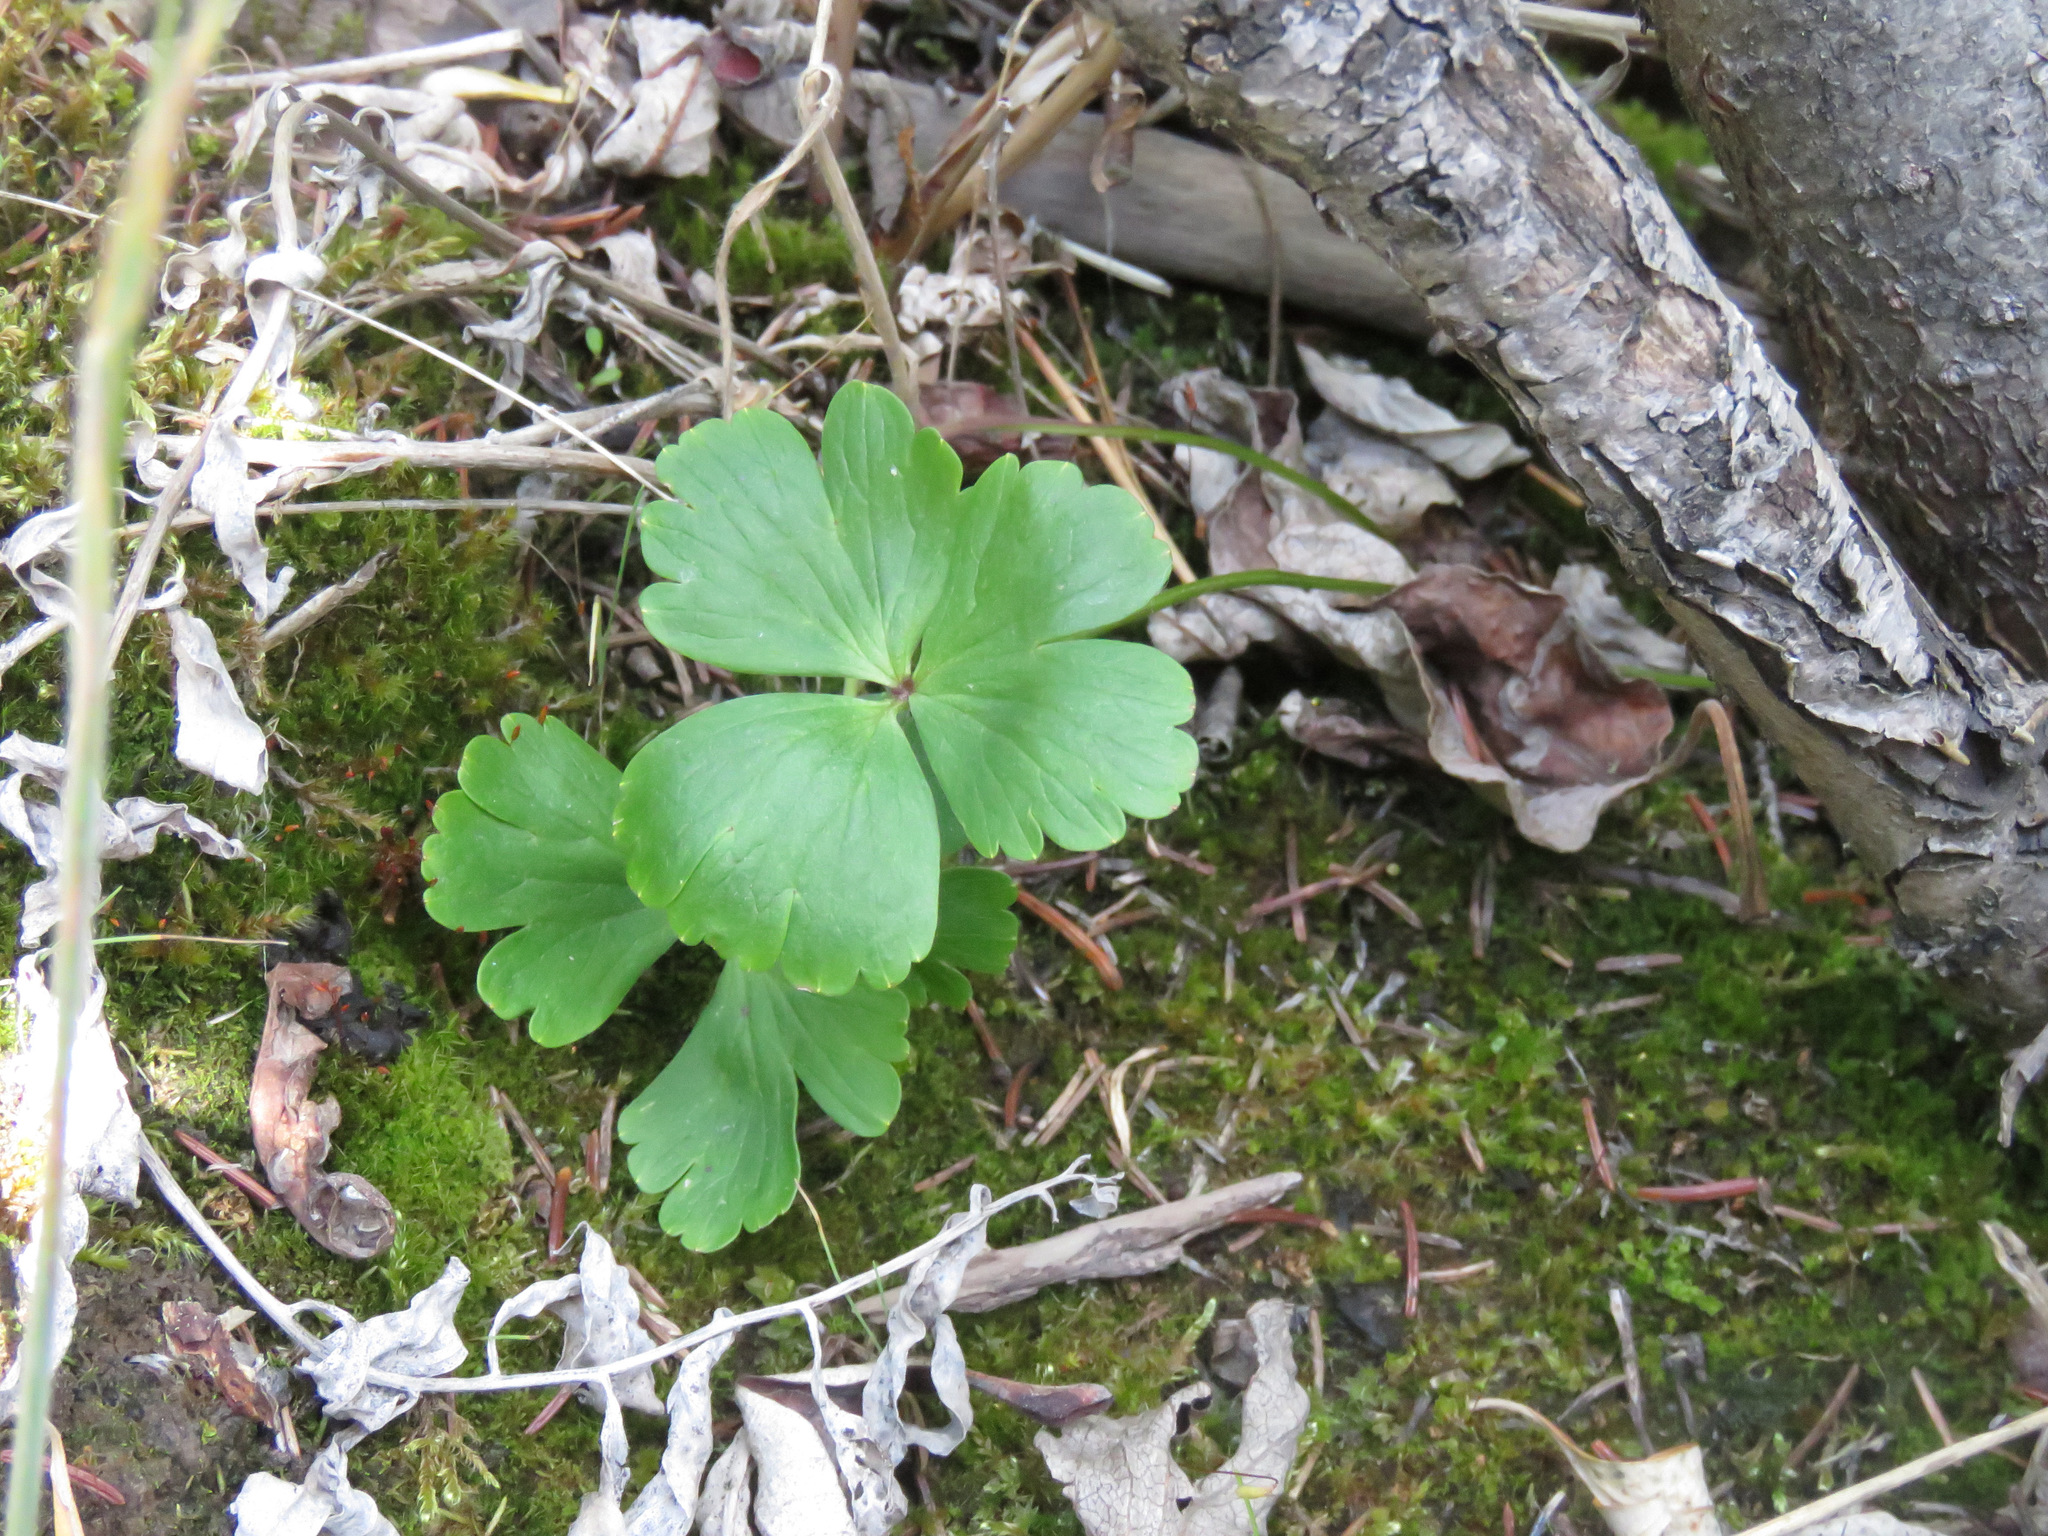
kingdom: Plantae
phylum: Tracheophyta
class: Magnoliopsida
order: Ranunculales
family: Ranunculaceae
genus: Anemone
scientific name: Anemone parviflora
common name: Northern anemone
